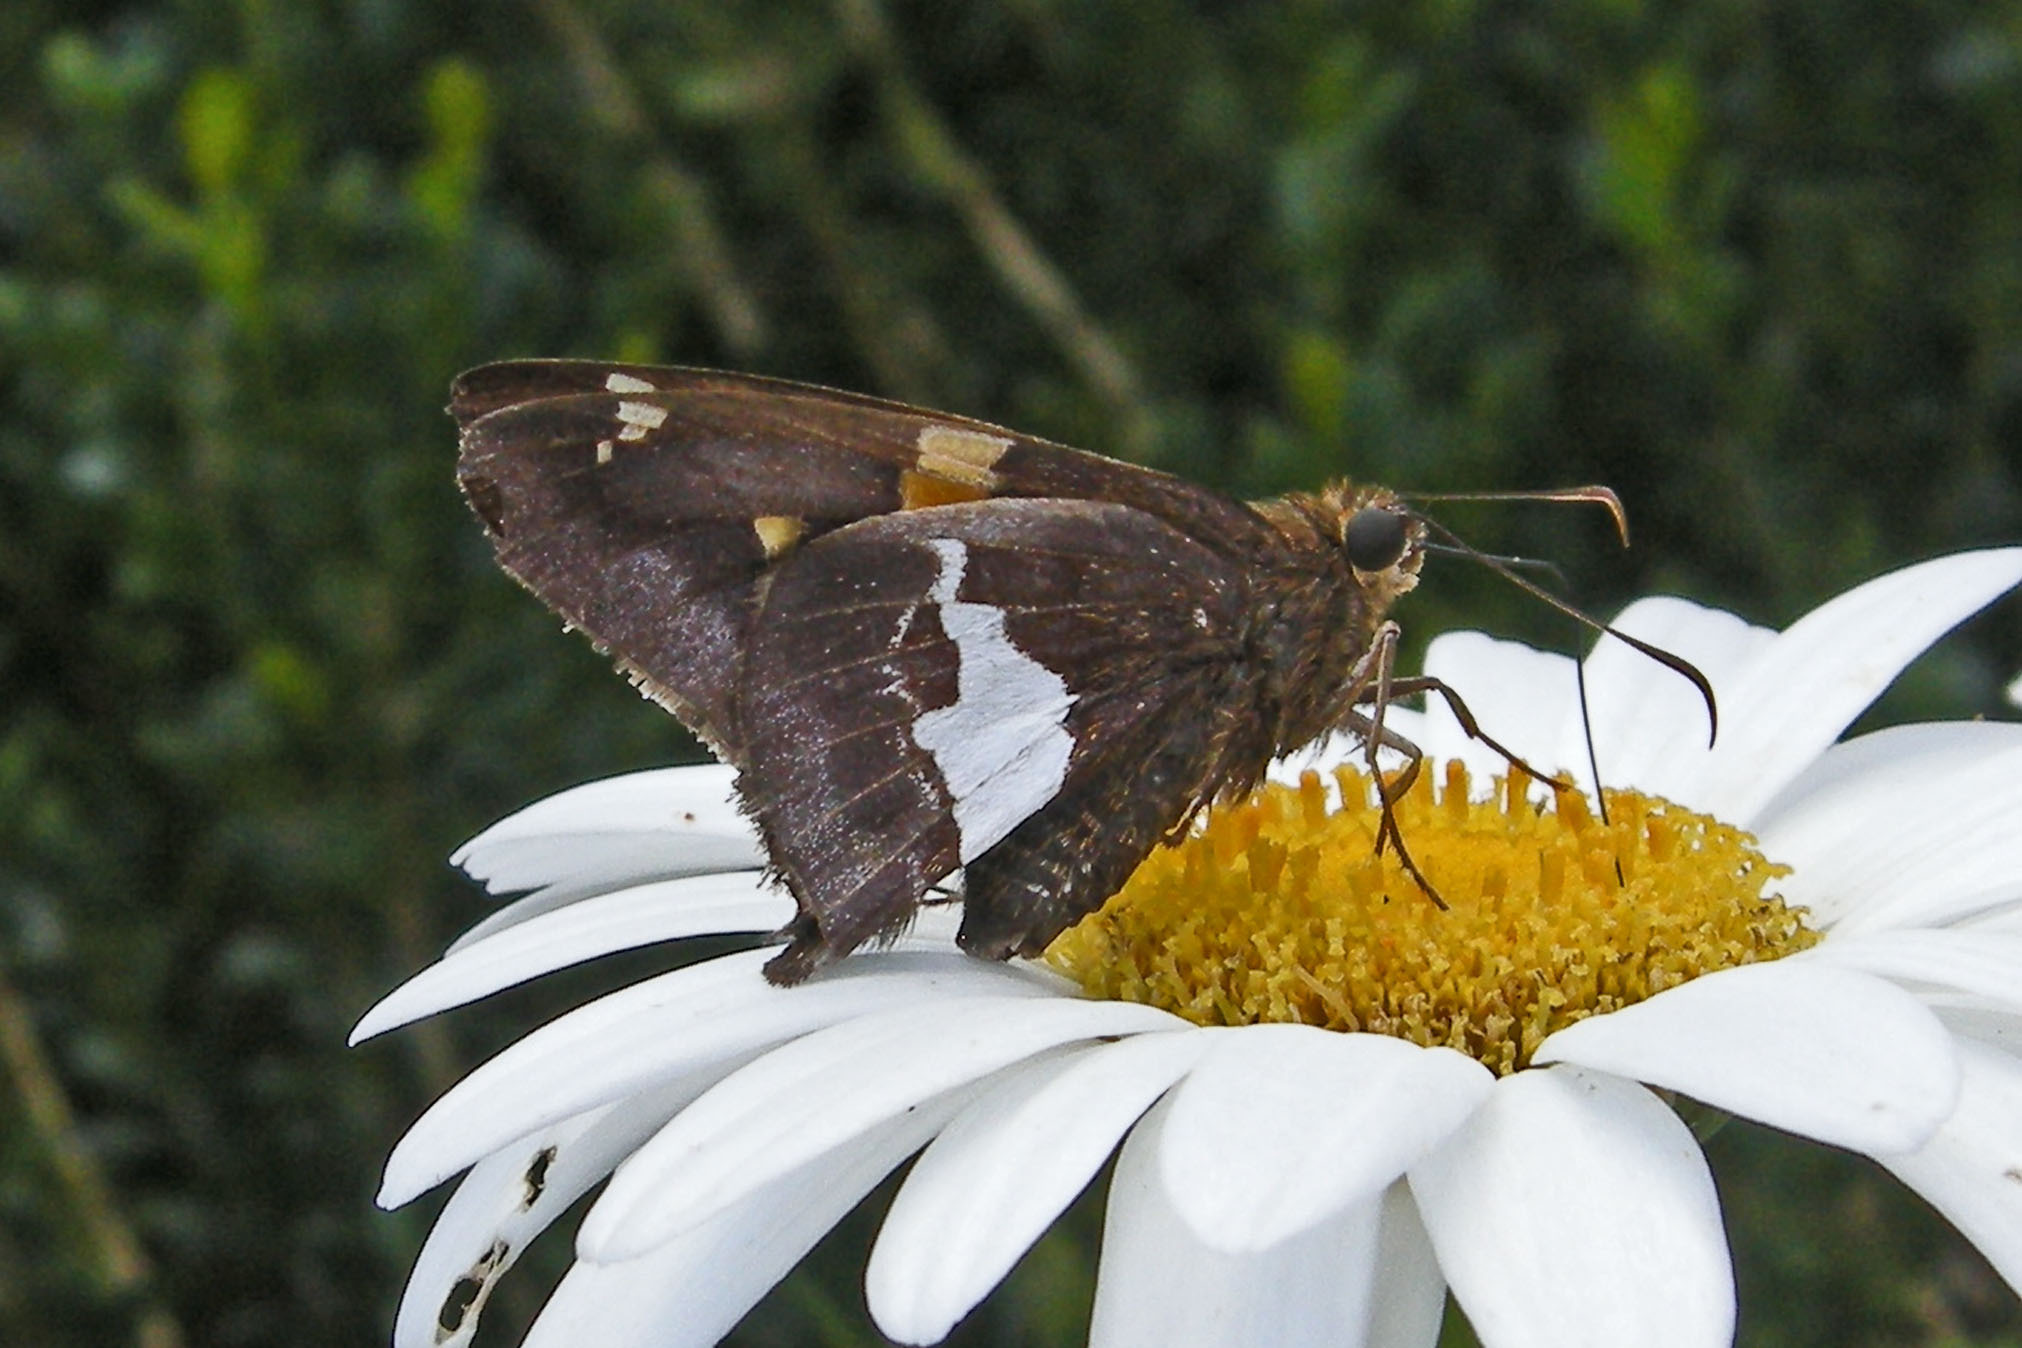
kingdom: Animalia
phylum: Arthropoda
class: Insecta
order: Lepidoptera
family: Hesperiidae
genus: Epargyreus
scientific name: Epargyreus clarus
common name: Silver-spotted skipper
